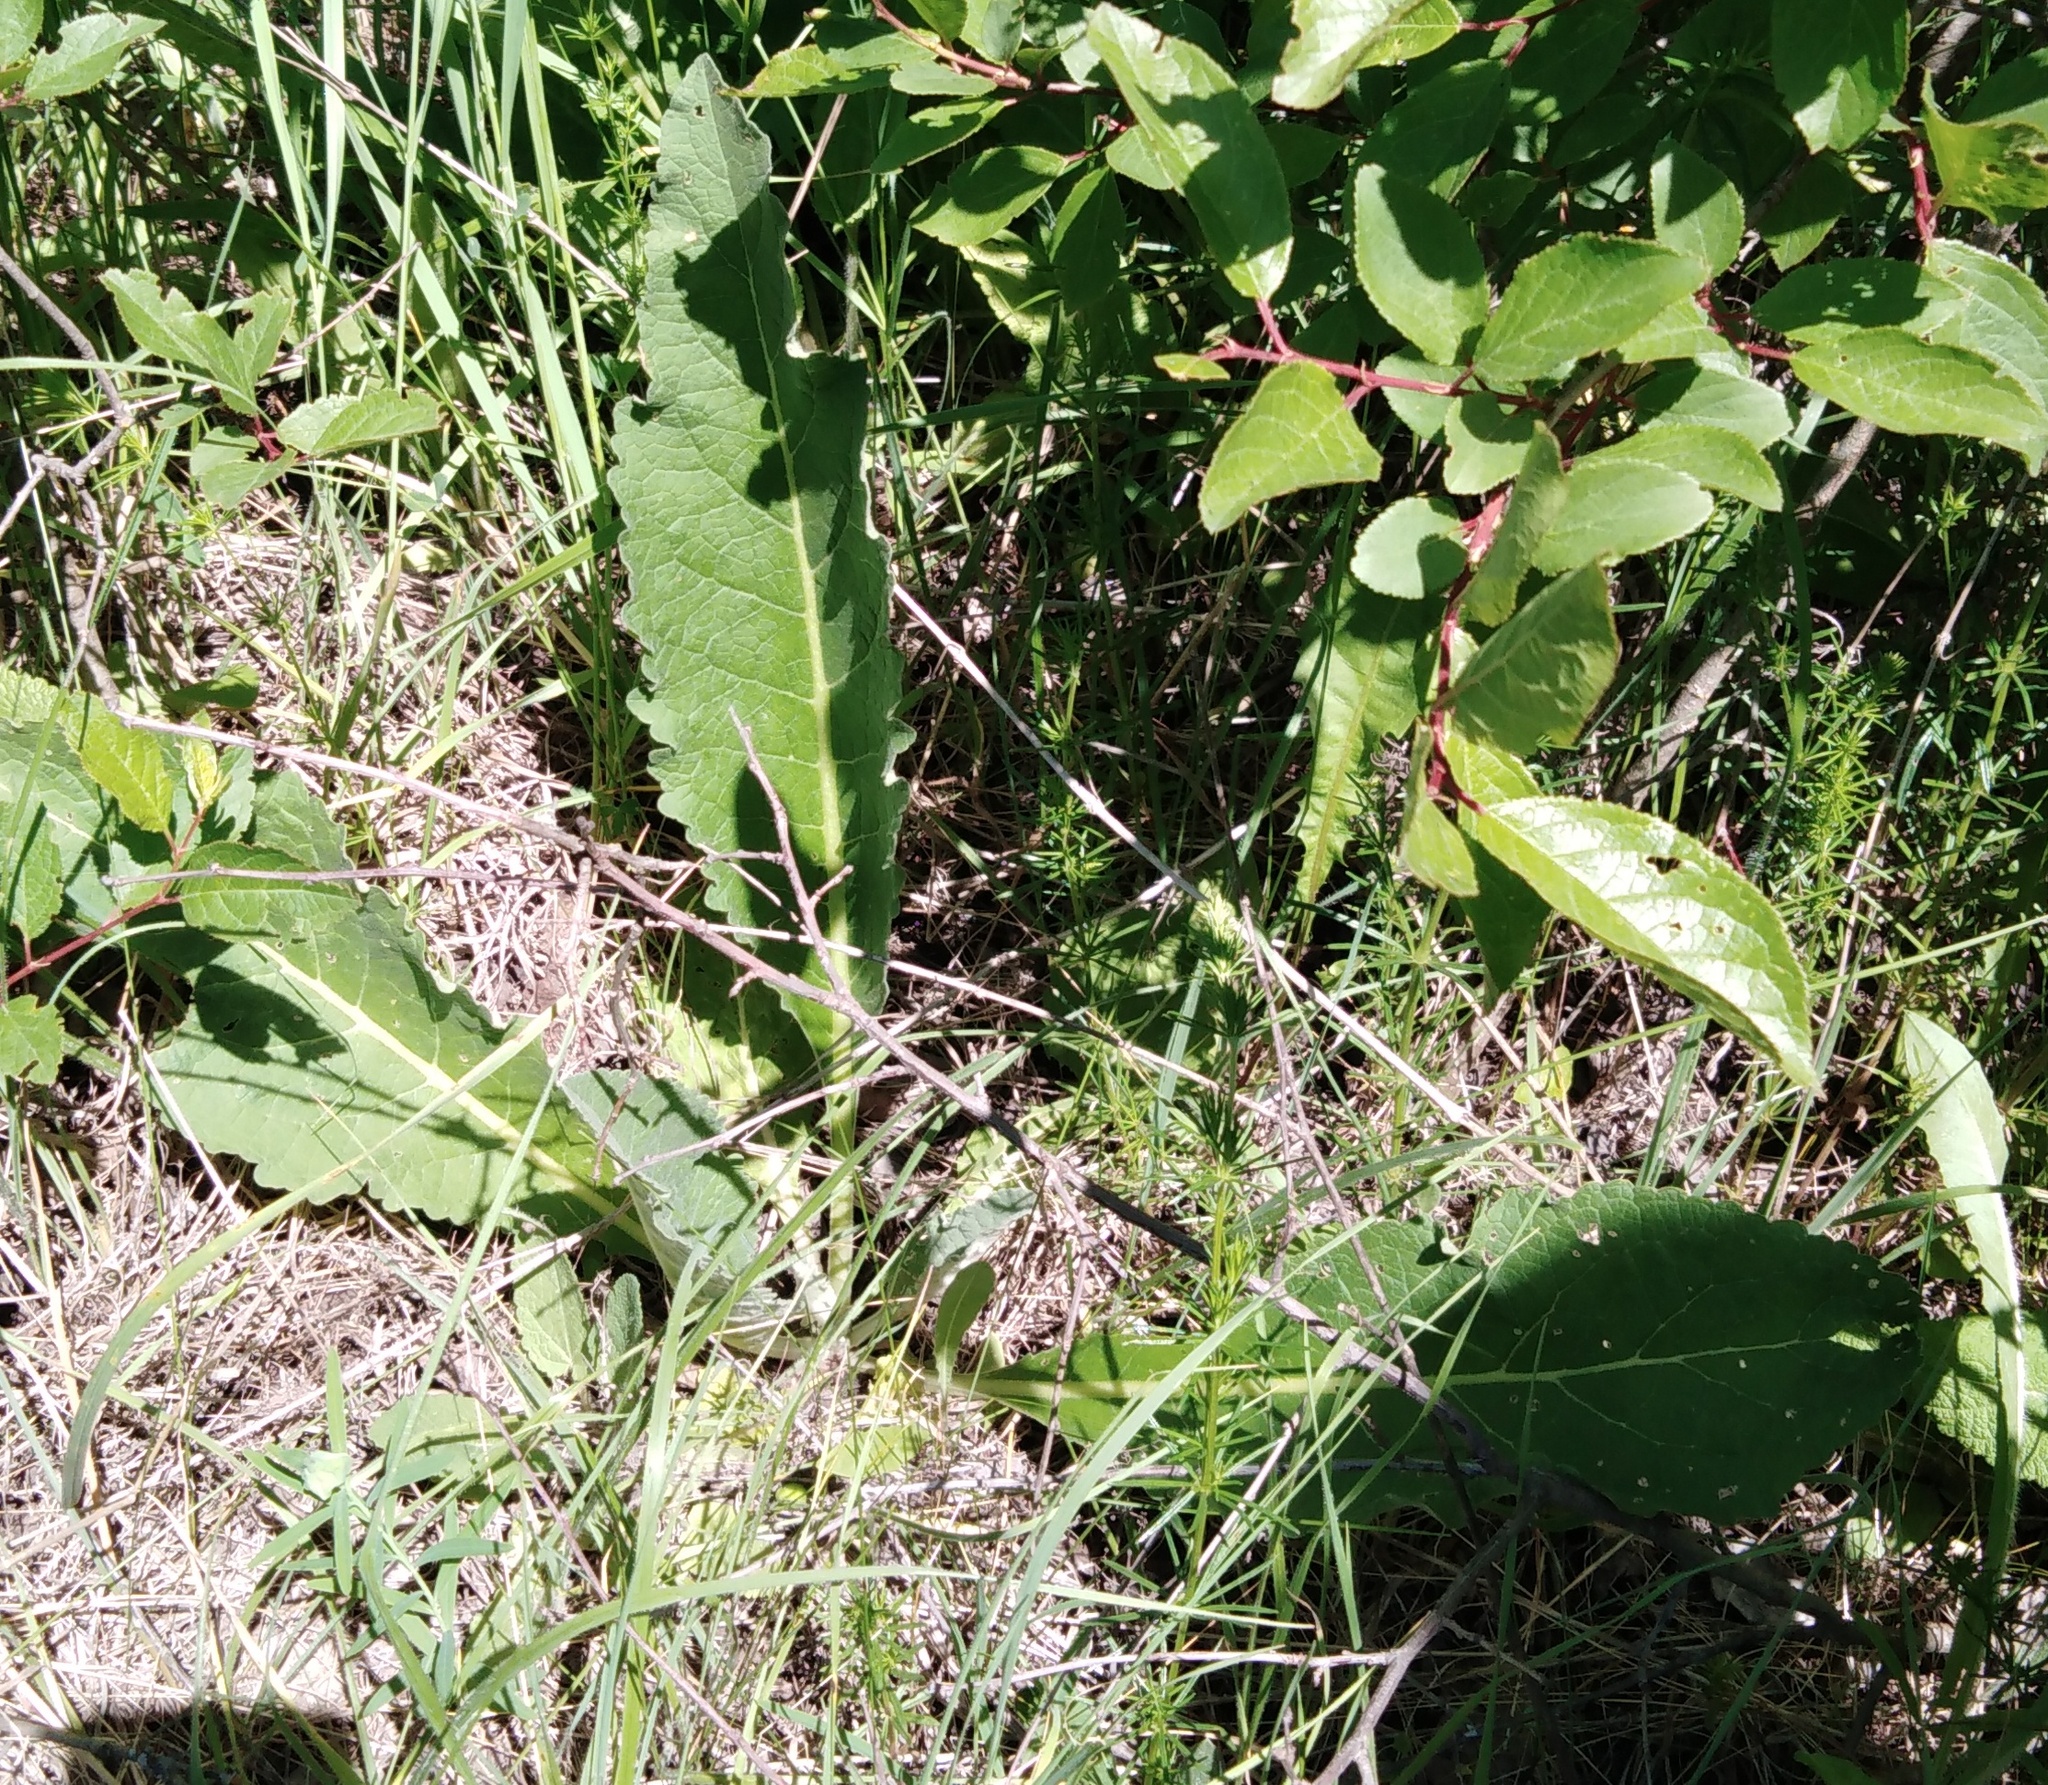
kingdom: Plantae
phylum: Tracheophyta
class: Magnoliopsida
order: Lamiales
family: Scrophulariaceae
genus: Verbascum
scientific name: Verbascum lychnitis
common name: White mullein
